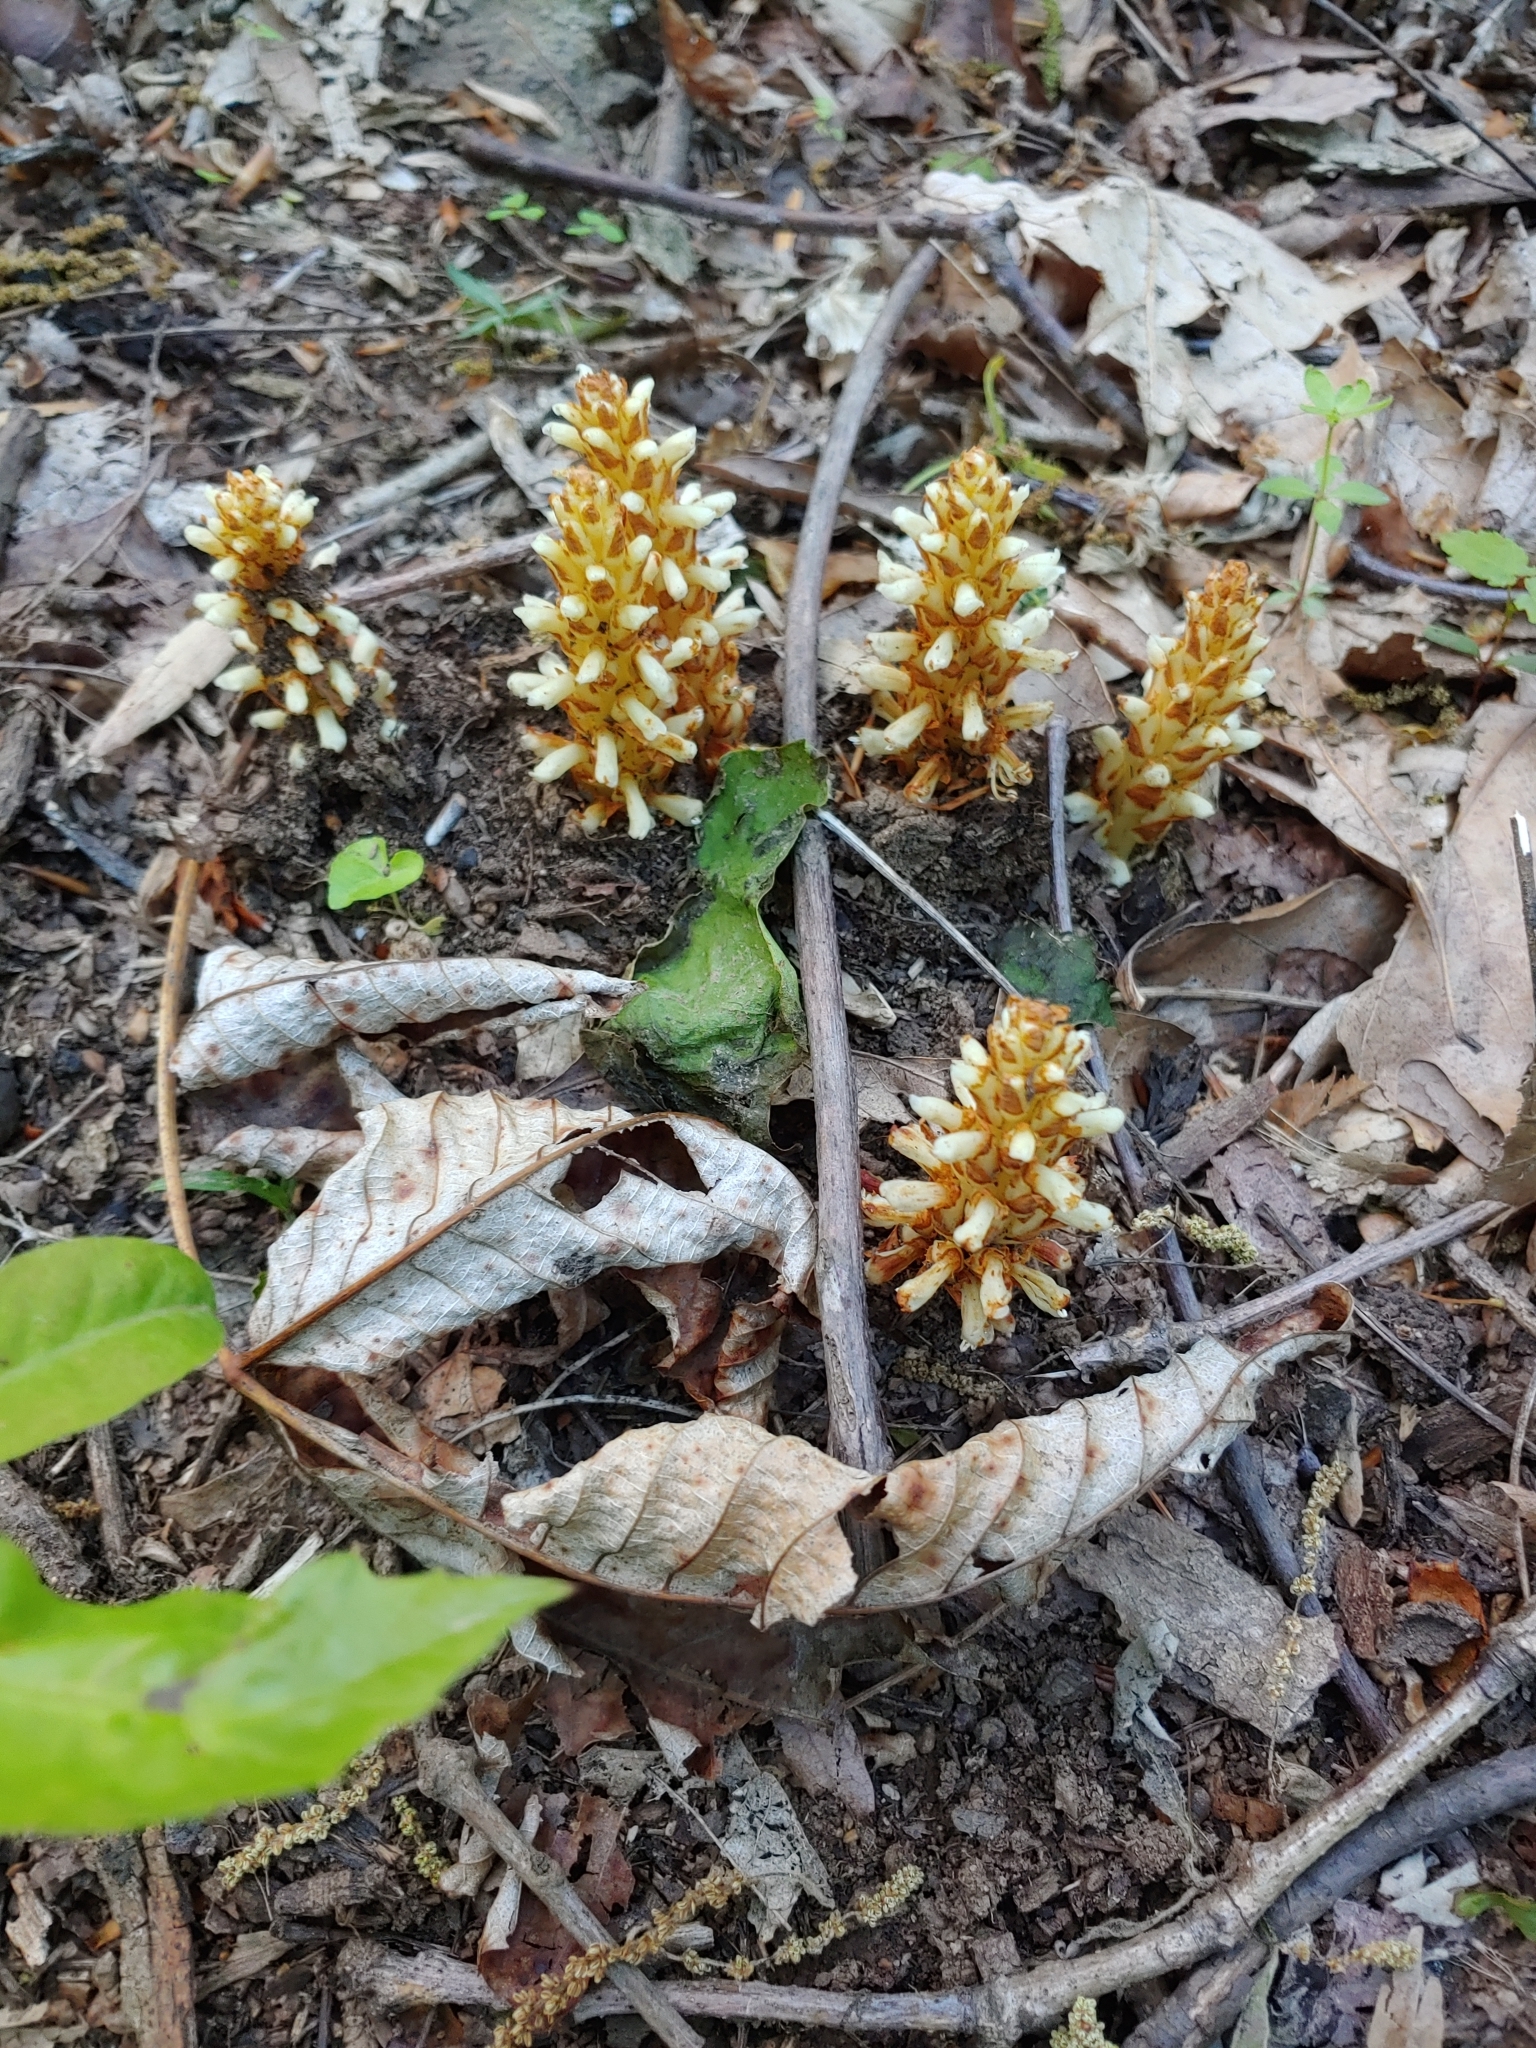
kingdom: Plantae
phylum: Tracheophyta
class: Magnoliopsida
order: Lamiales
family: Orobanchaceae
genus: Conopholis
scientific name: Conopholis americana
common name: American cancer-root
